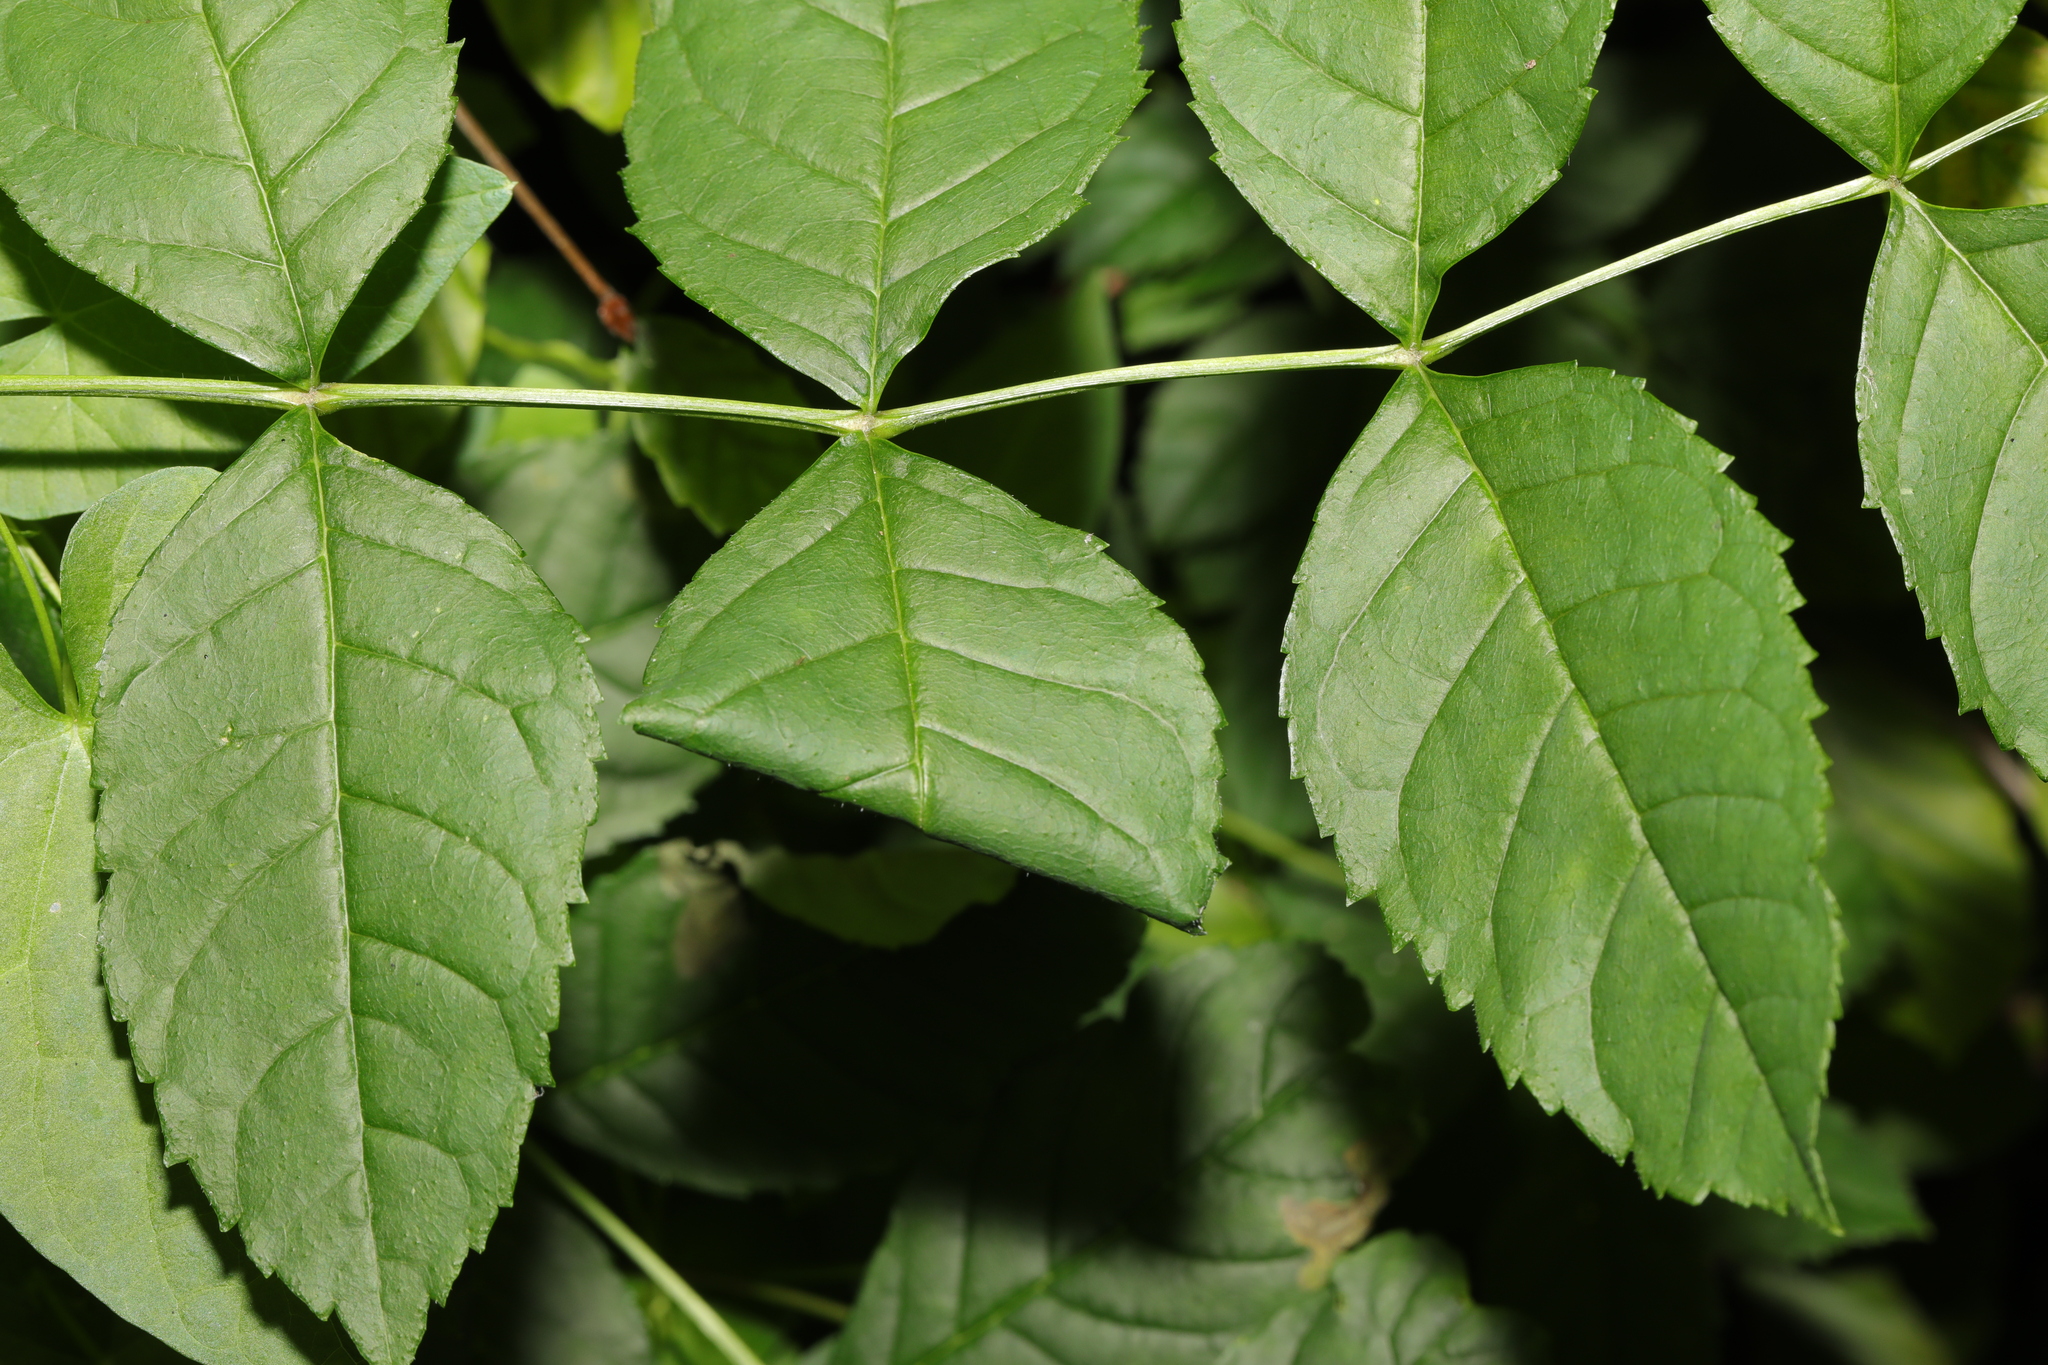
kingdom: Plantae
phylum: Tracheophyta
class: Magnoliopsida
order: Lamiales
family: Oleaceae
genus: Fraxinus
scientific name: Fraxinus excelsior
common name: European ash
